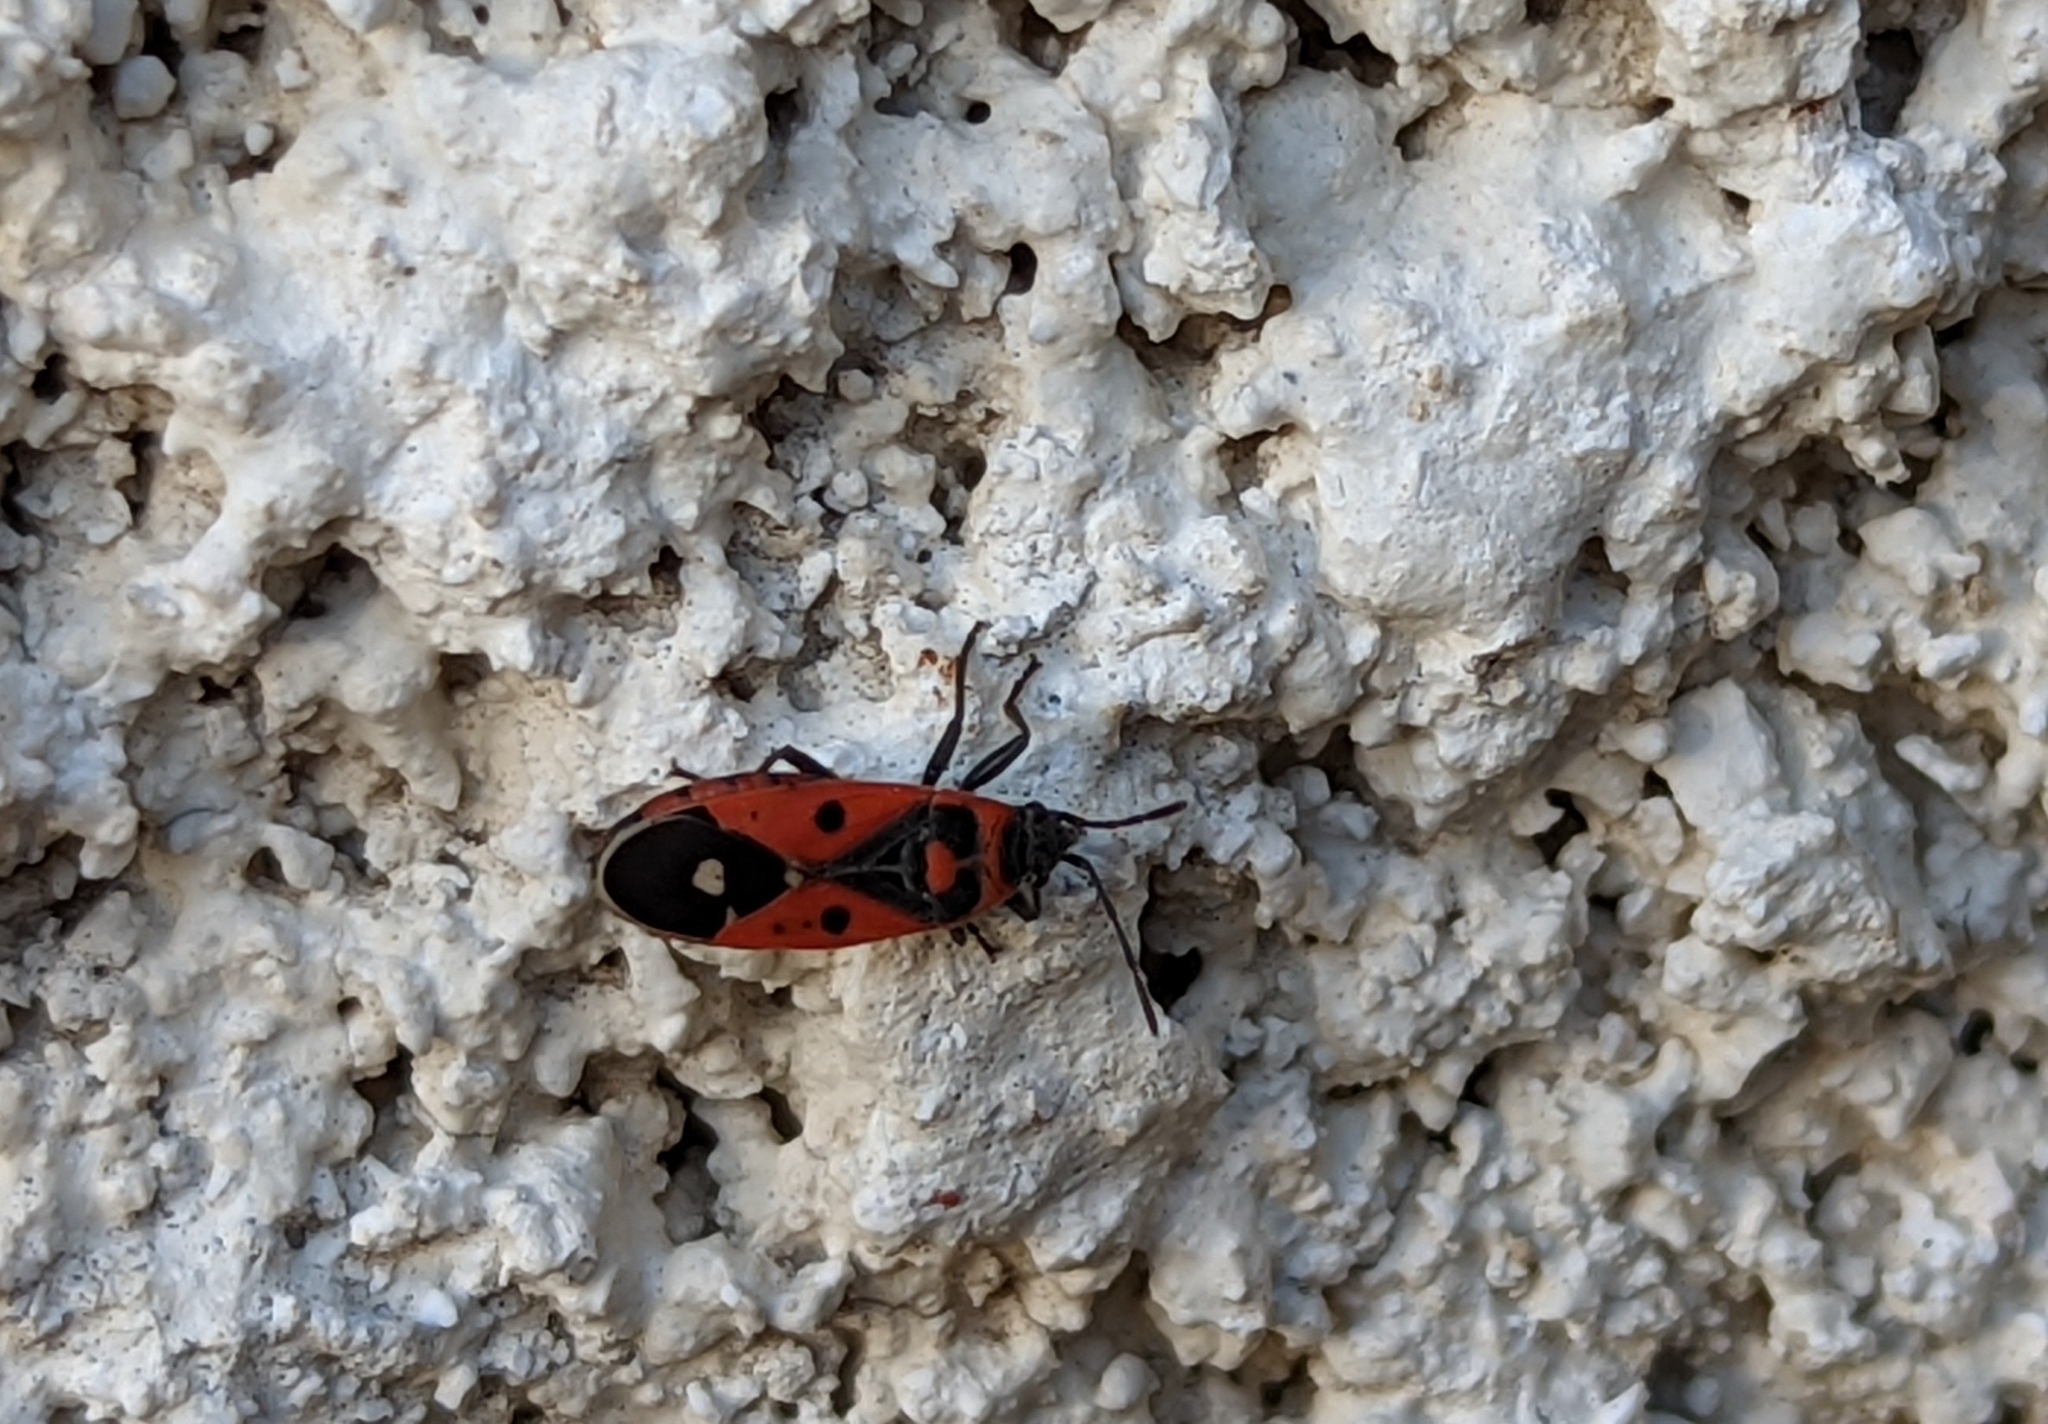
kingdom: Animalia
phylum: Arthropoda
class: Insecta
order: Hemiptera
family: Lygaeidae
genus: Melanocoryphus
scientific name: Melanocoryphus albomaculatus
